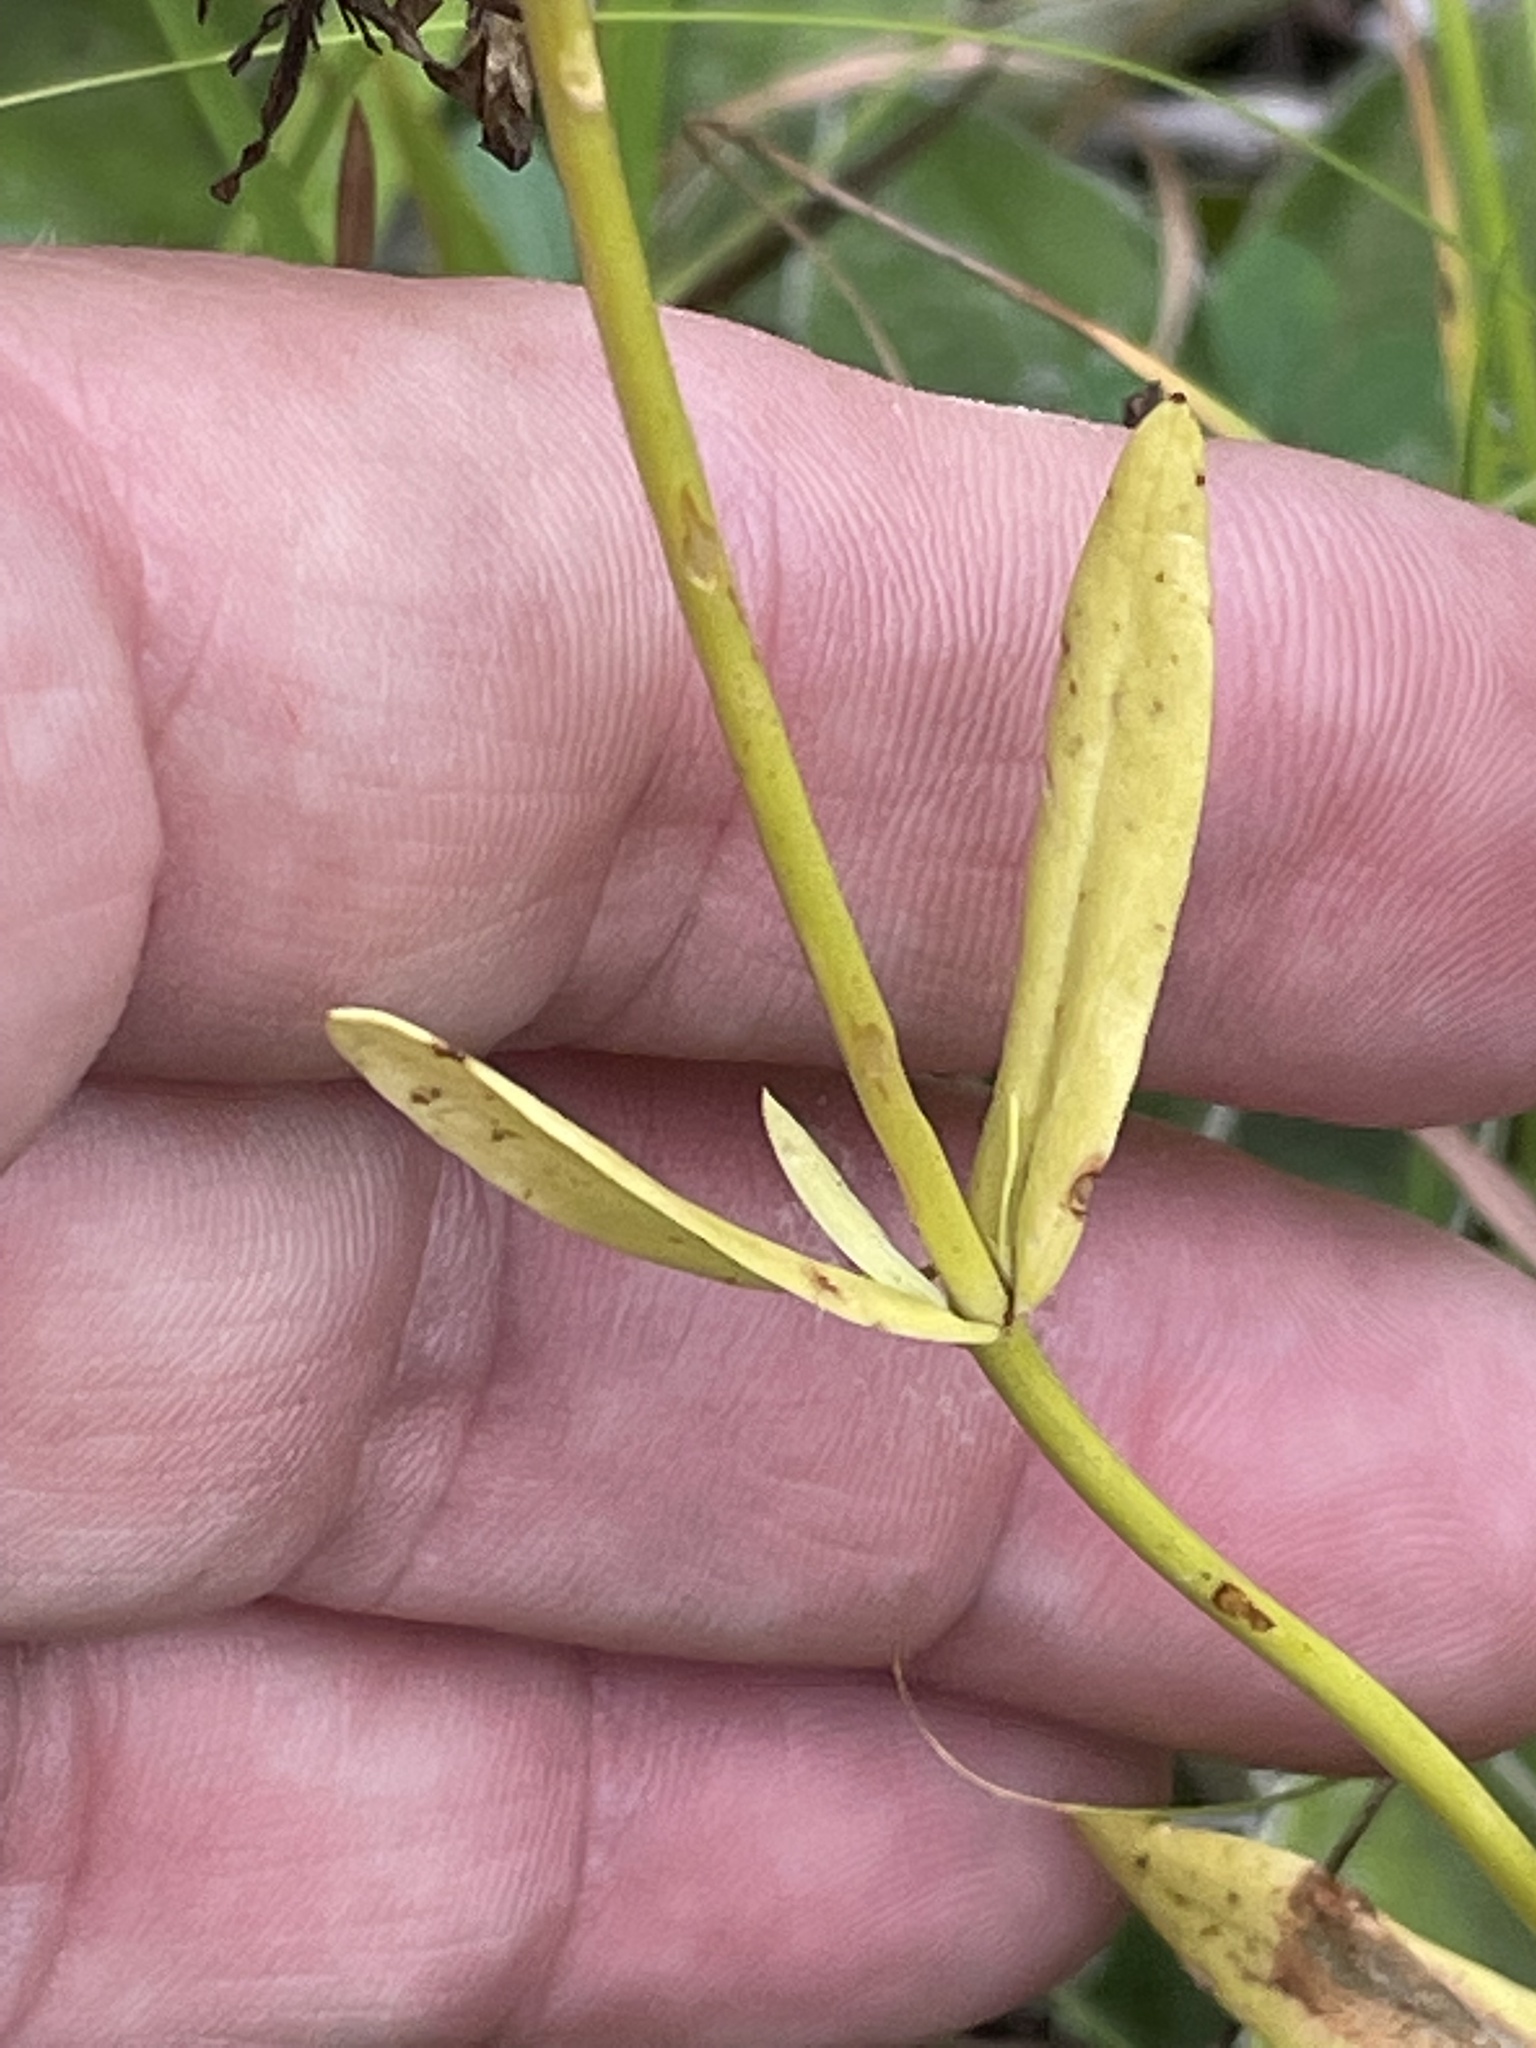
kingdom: Plantae
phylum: Tracheophyta
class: Magnoliopsida
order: Gentianales
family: Gentianaceae
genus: Sabatia
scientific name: Sabatia angularis
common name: Rose-pink
